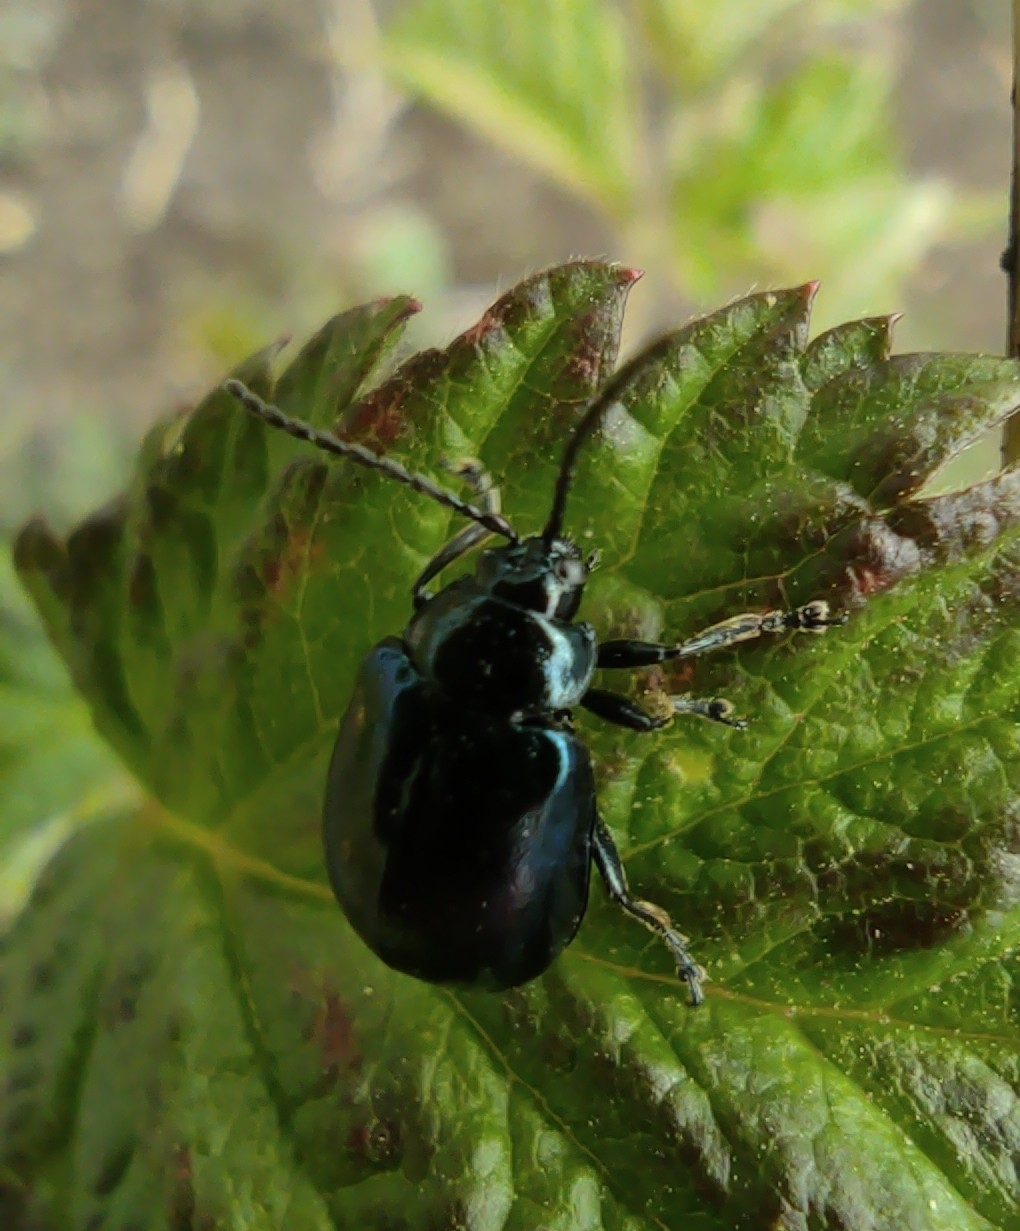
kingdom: Animalia
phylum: Arthropoda
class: Insecta
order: Coleoptera
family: Chrysomelidae
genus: Agelastica
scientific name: Agelastica alni
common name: Alder leaf beetle
